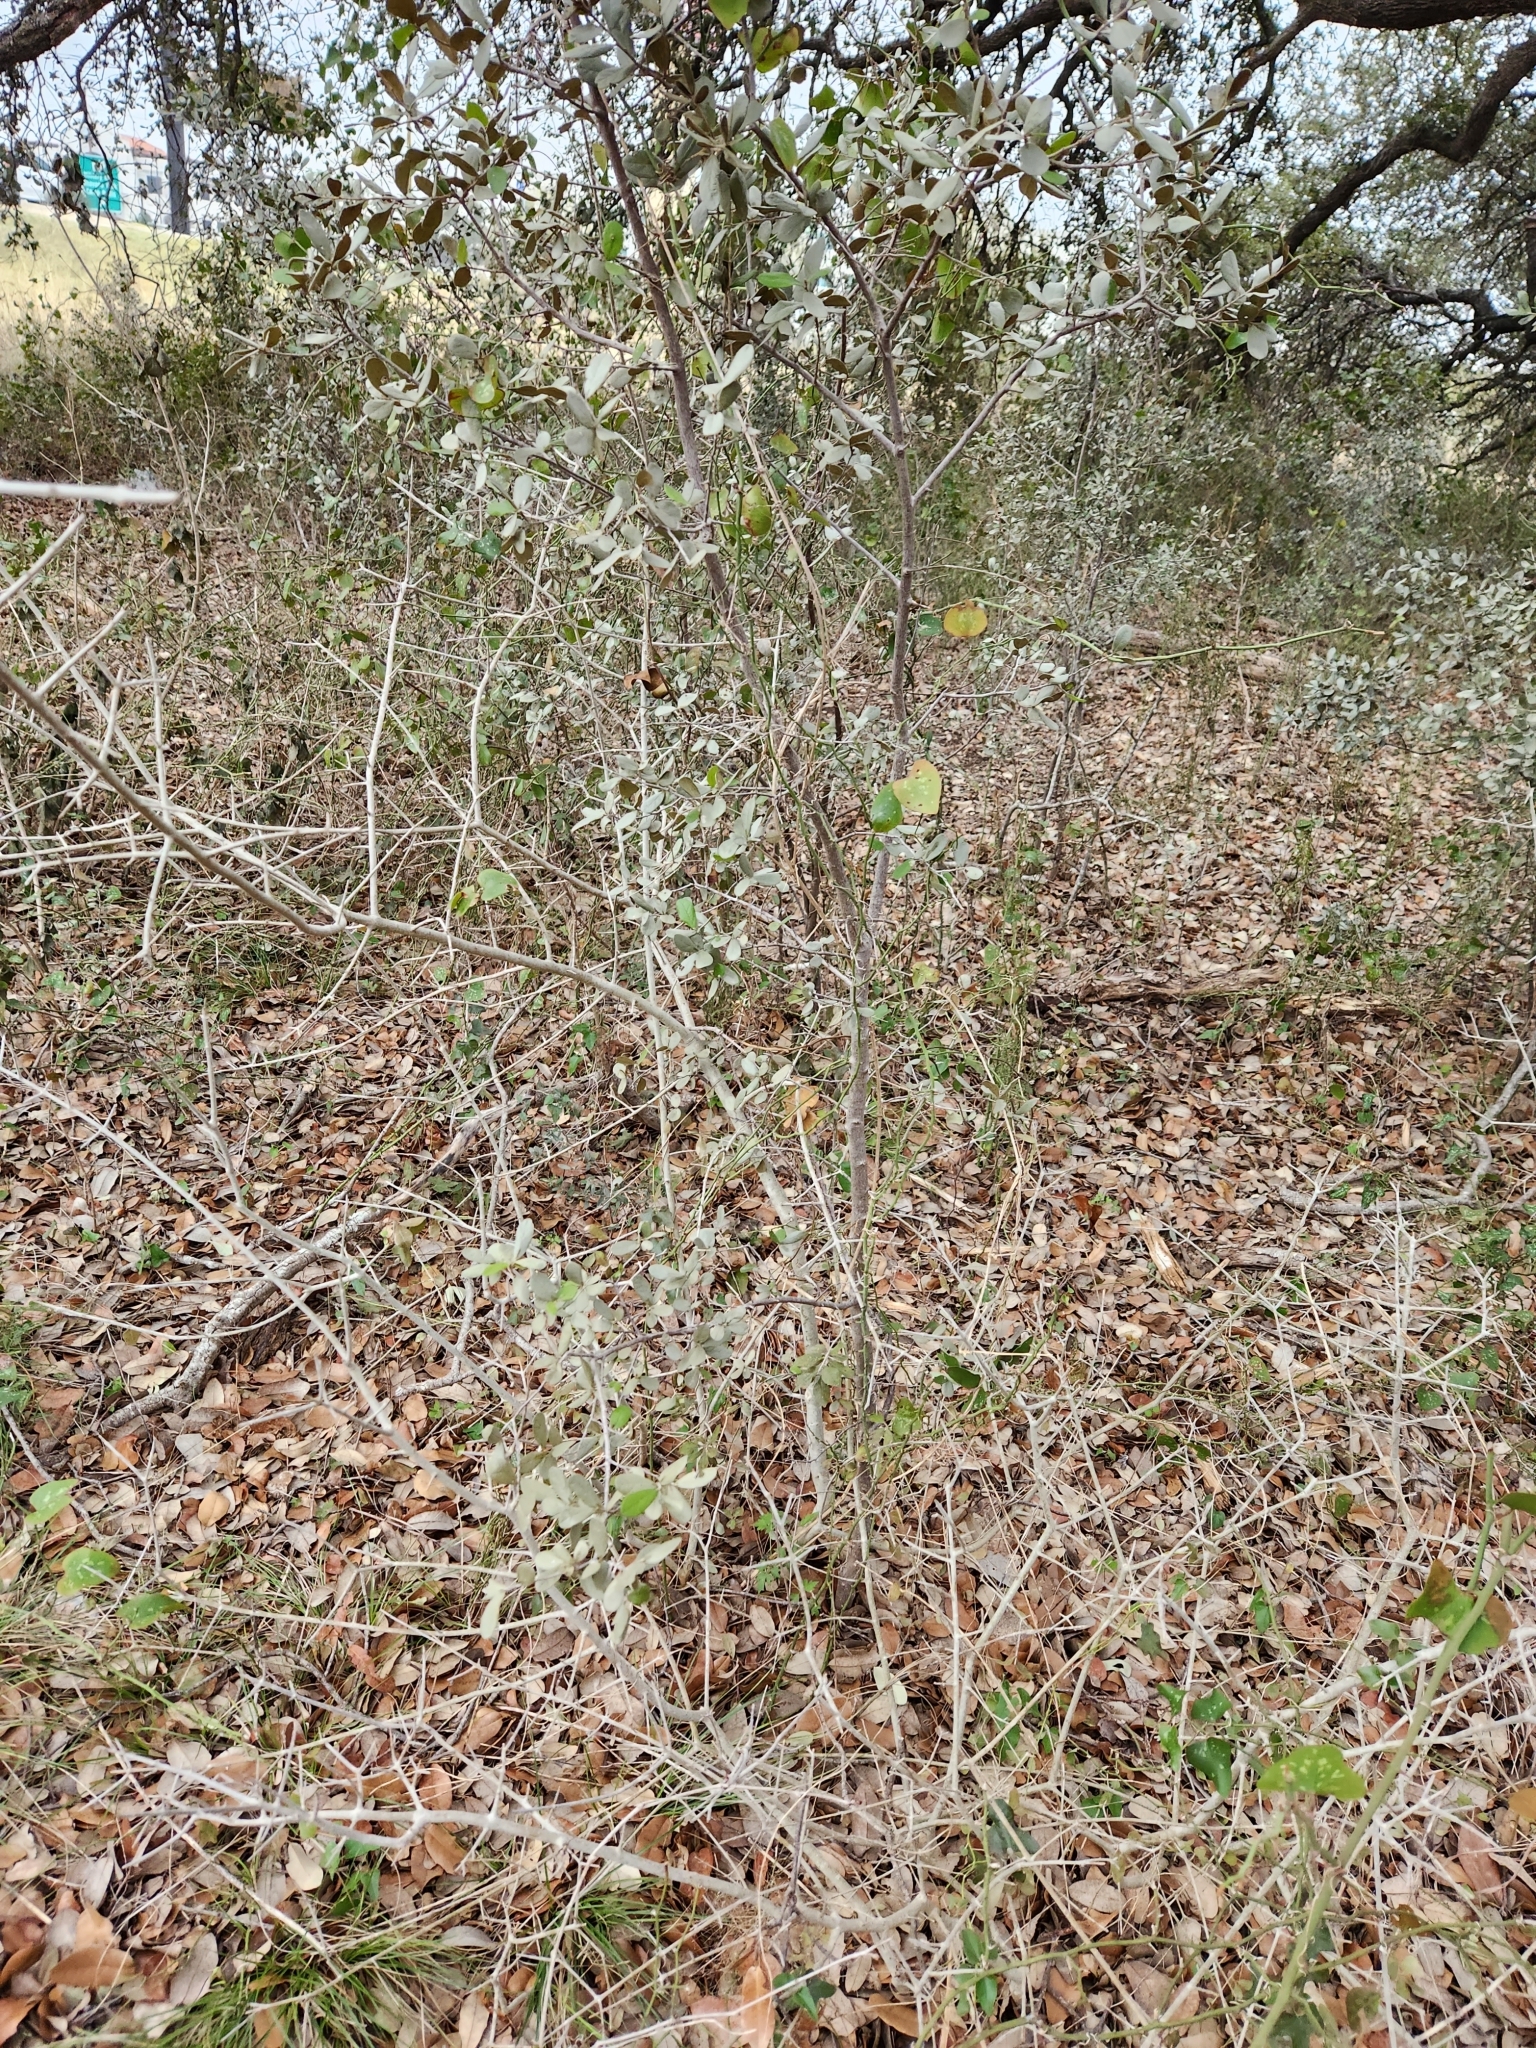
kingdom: Plantae
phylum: Tracheophyta
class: Magnoliopsida
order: Ericales
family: Ebenaceae
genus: Diospyros
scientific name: Diospyros texana
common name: Texas persimmon
